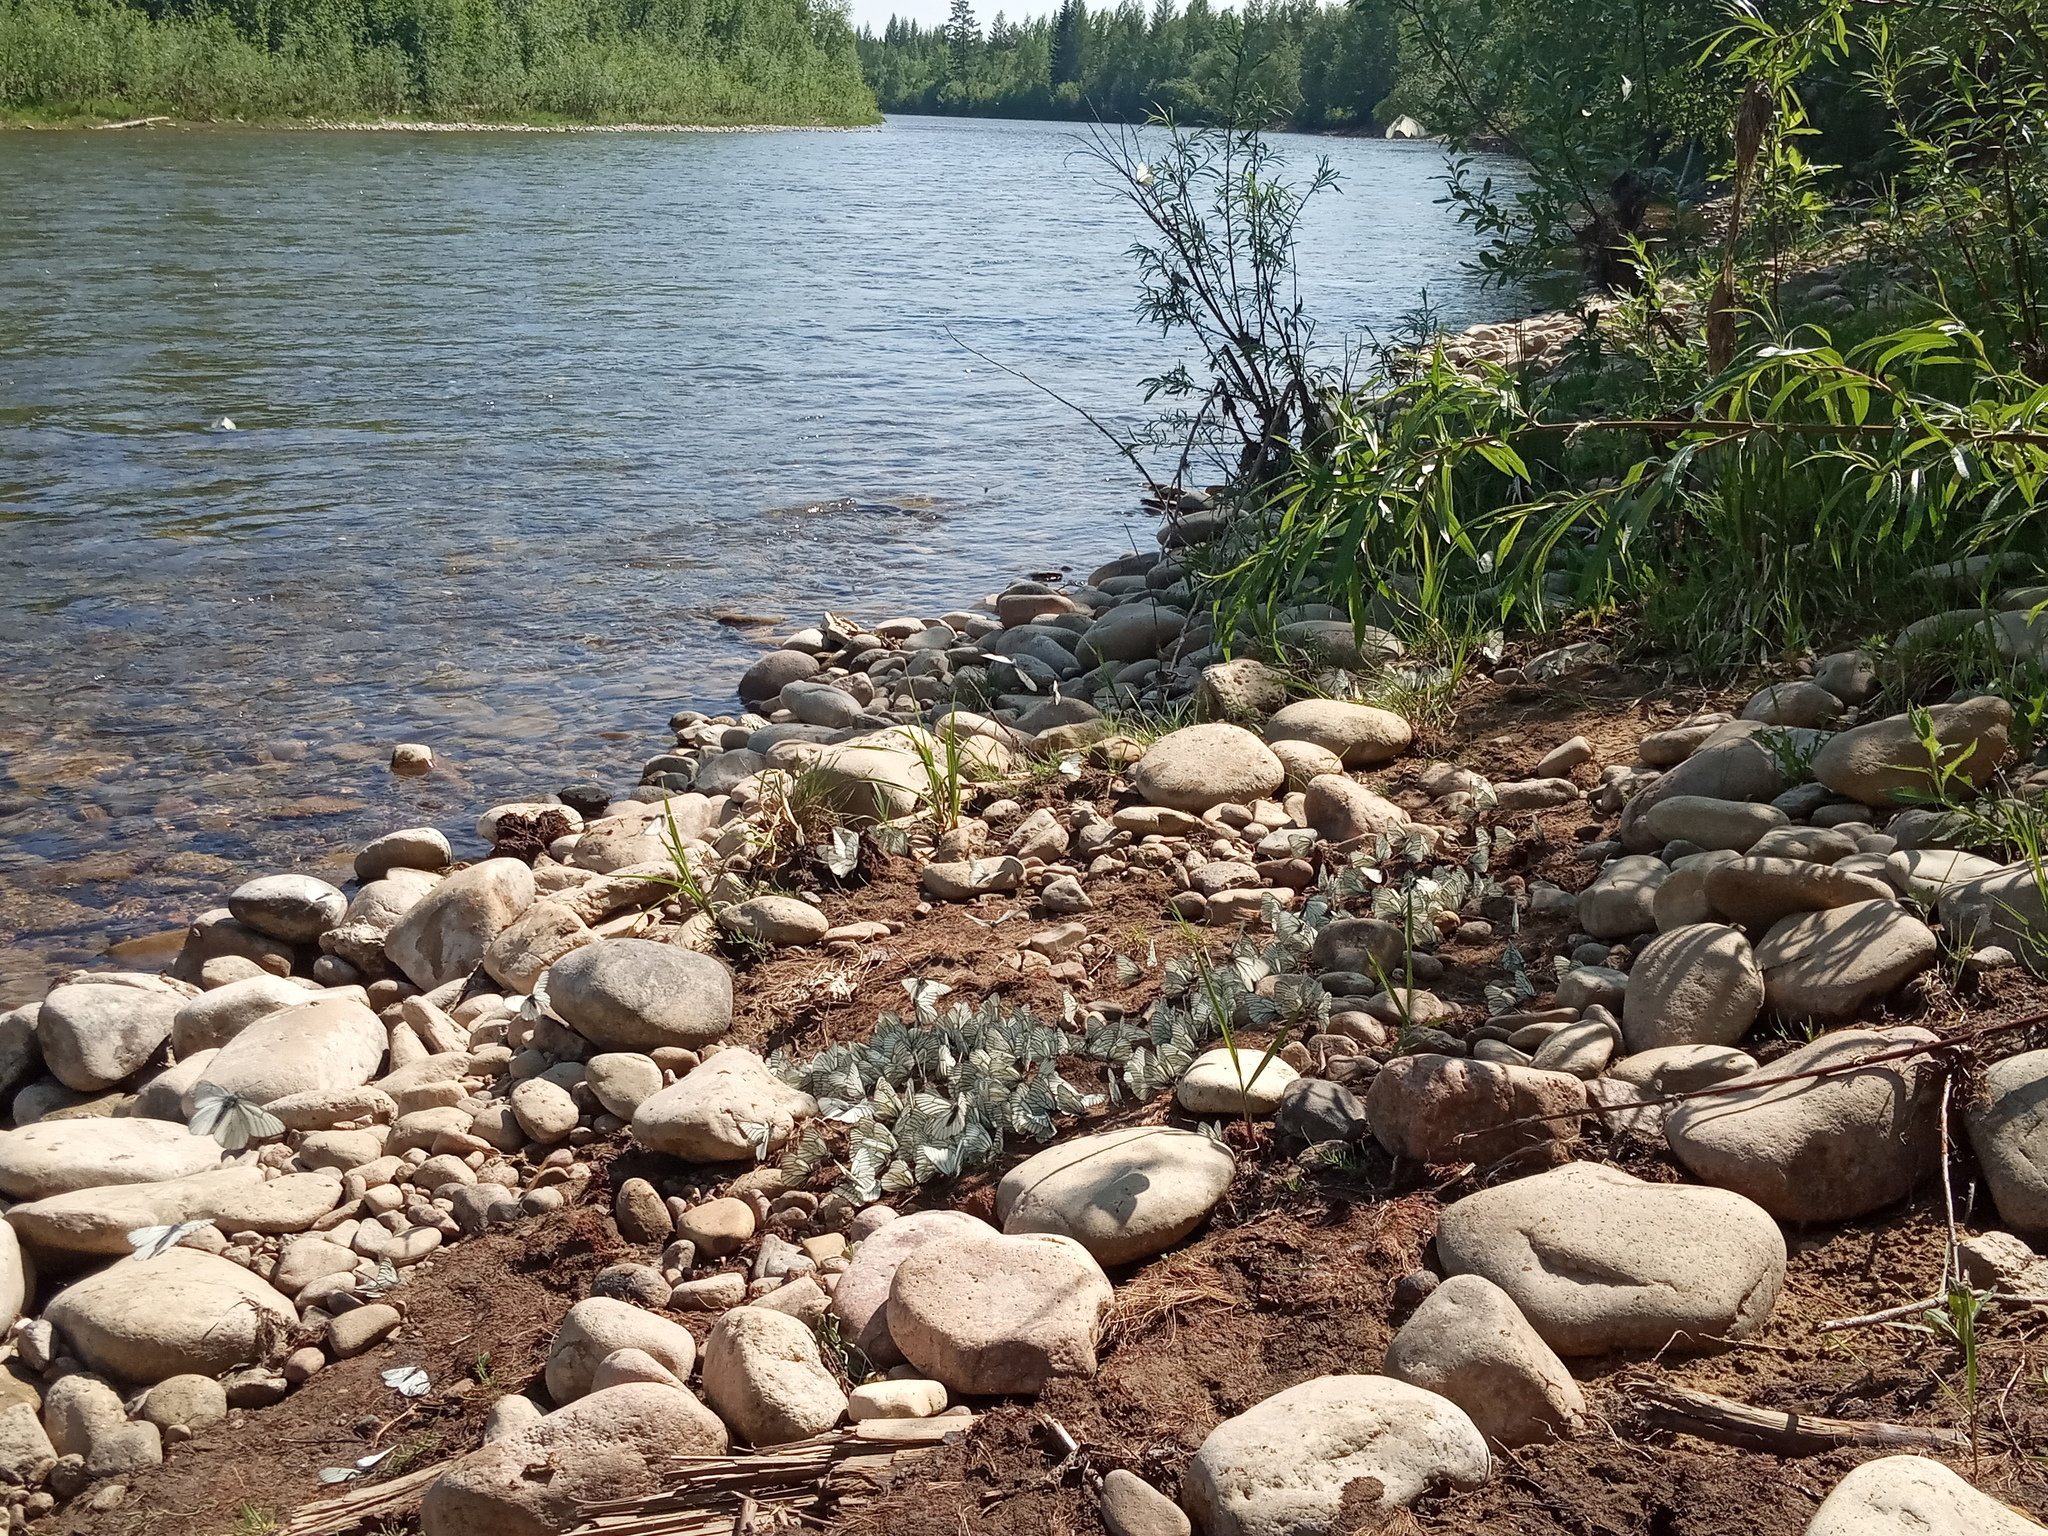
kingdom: Animalia
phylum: Arthropoda
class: Insecta
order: Lepidoptera
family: Pieridae
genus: Aporia
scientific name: Aporia crataegi
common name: Black-veined white
